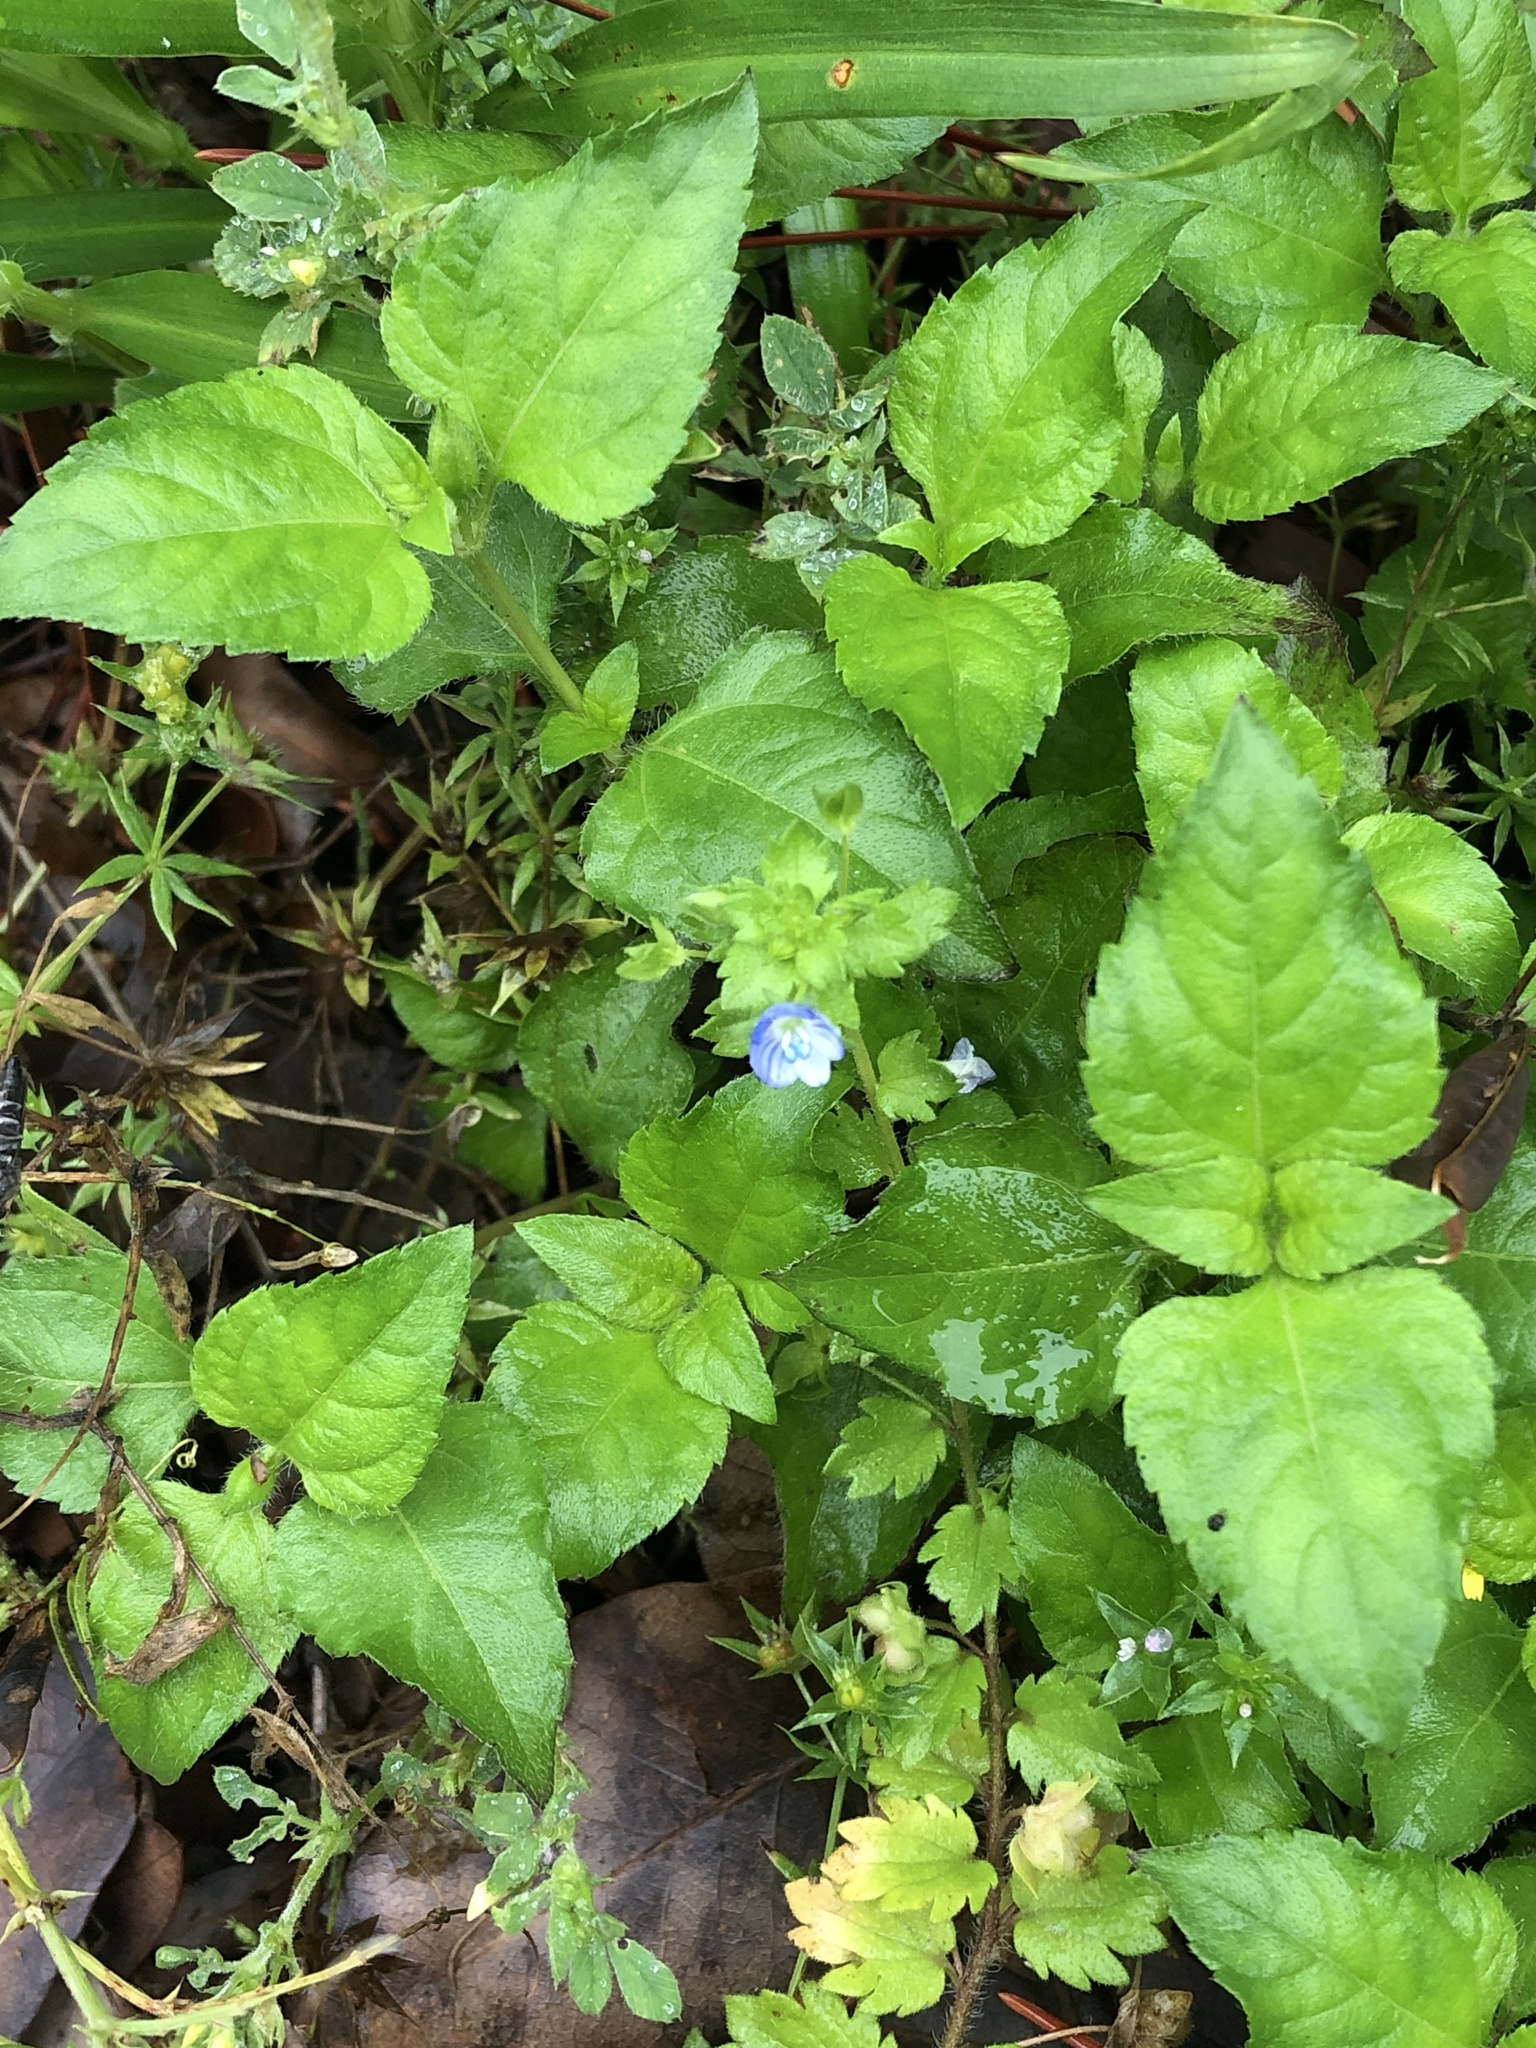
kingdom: Plantae
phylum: Tracheophyta
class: Magnoliopsida
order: Lamiales
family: Plantaginaceae
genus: Veronica
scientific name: Veronica persica
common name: Common field-speedwell
